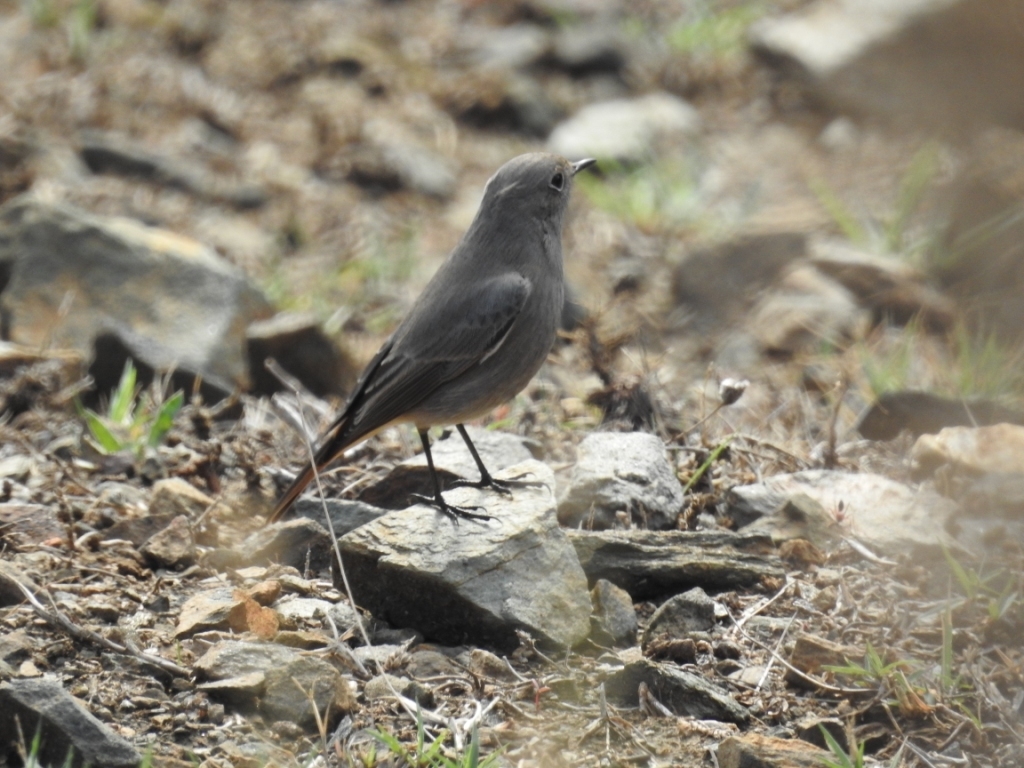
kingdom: Animalia
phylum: Chordata
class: Aves
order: Passeriformes
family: Muscicapidae
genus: Phoenicurus
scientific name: Phoenicurus ochruros
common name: Black redstart
